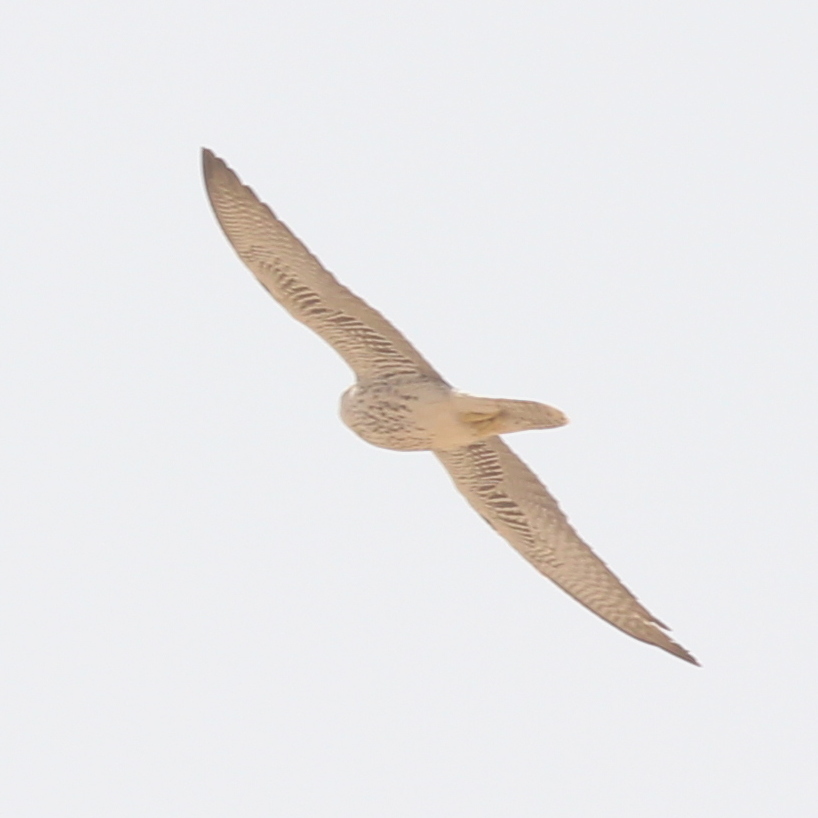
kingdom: Animalia
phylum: Chordata
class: Aves
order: Falconiformes
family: Falconidae
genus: Falco
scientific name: Falco biarmicus
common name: Lanner falcon
